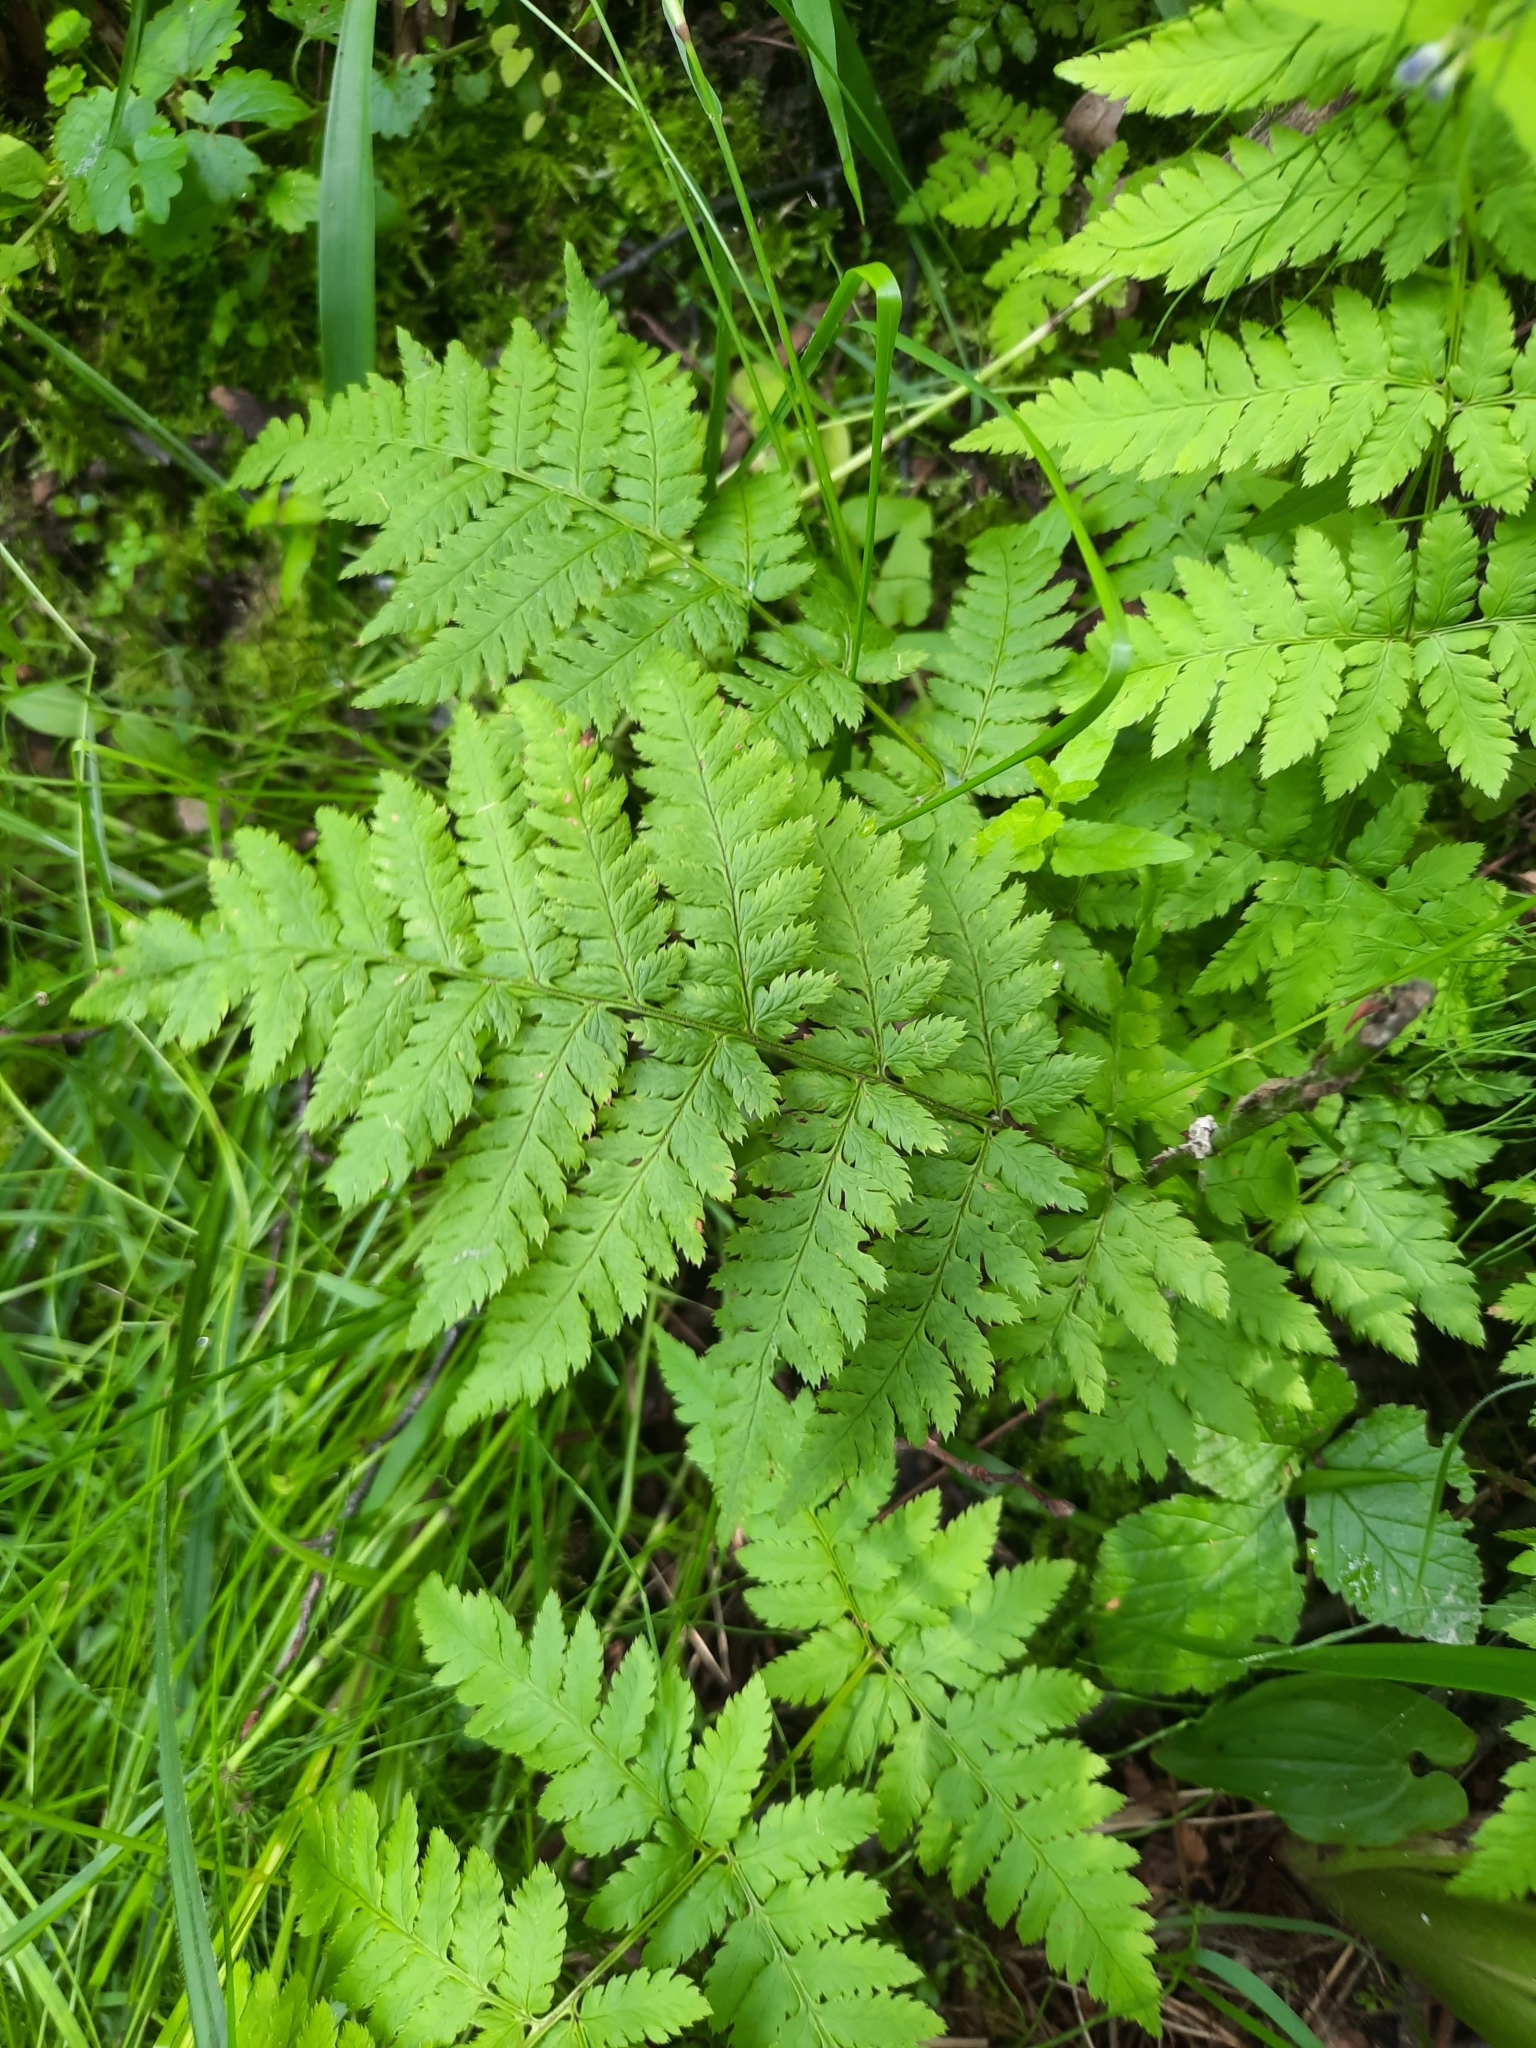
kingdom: Plantae
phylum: Tracheophyta
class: Polypodiopsida
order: Polypodiales
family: Dryopteridaceae
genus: Dryopteris
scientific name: Dryopteris carthusiana
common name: Narrow buckler-fern
